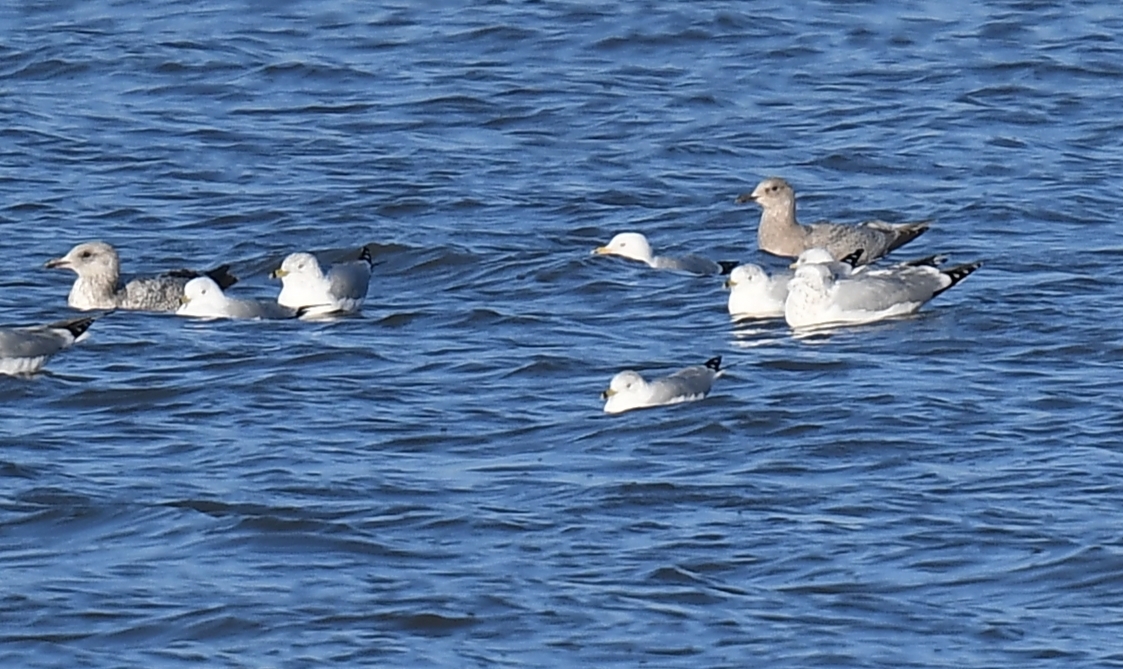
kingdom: Animalia
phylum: Chordata
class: Aves
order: Charadriiformes
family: Laridae
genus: Larus
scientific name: Larus glaucoides
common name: Iceland gull
